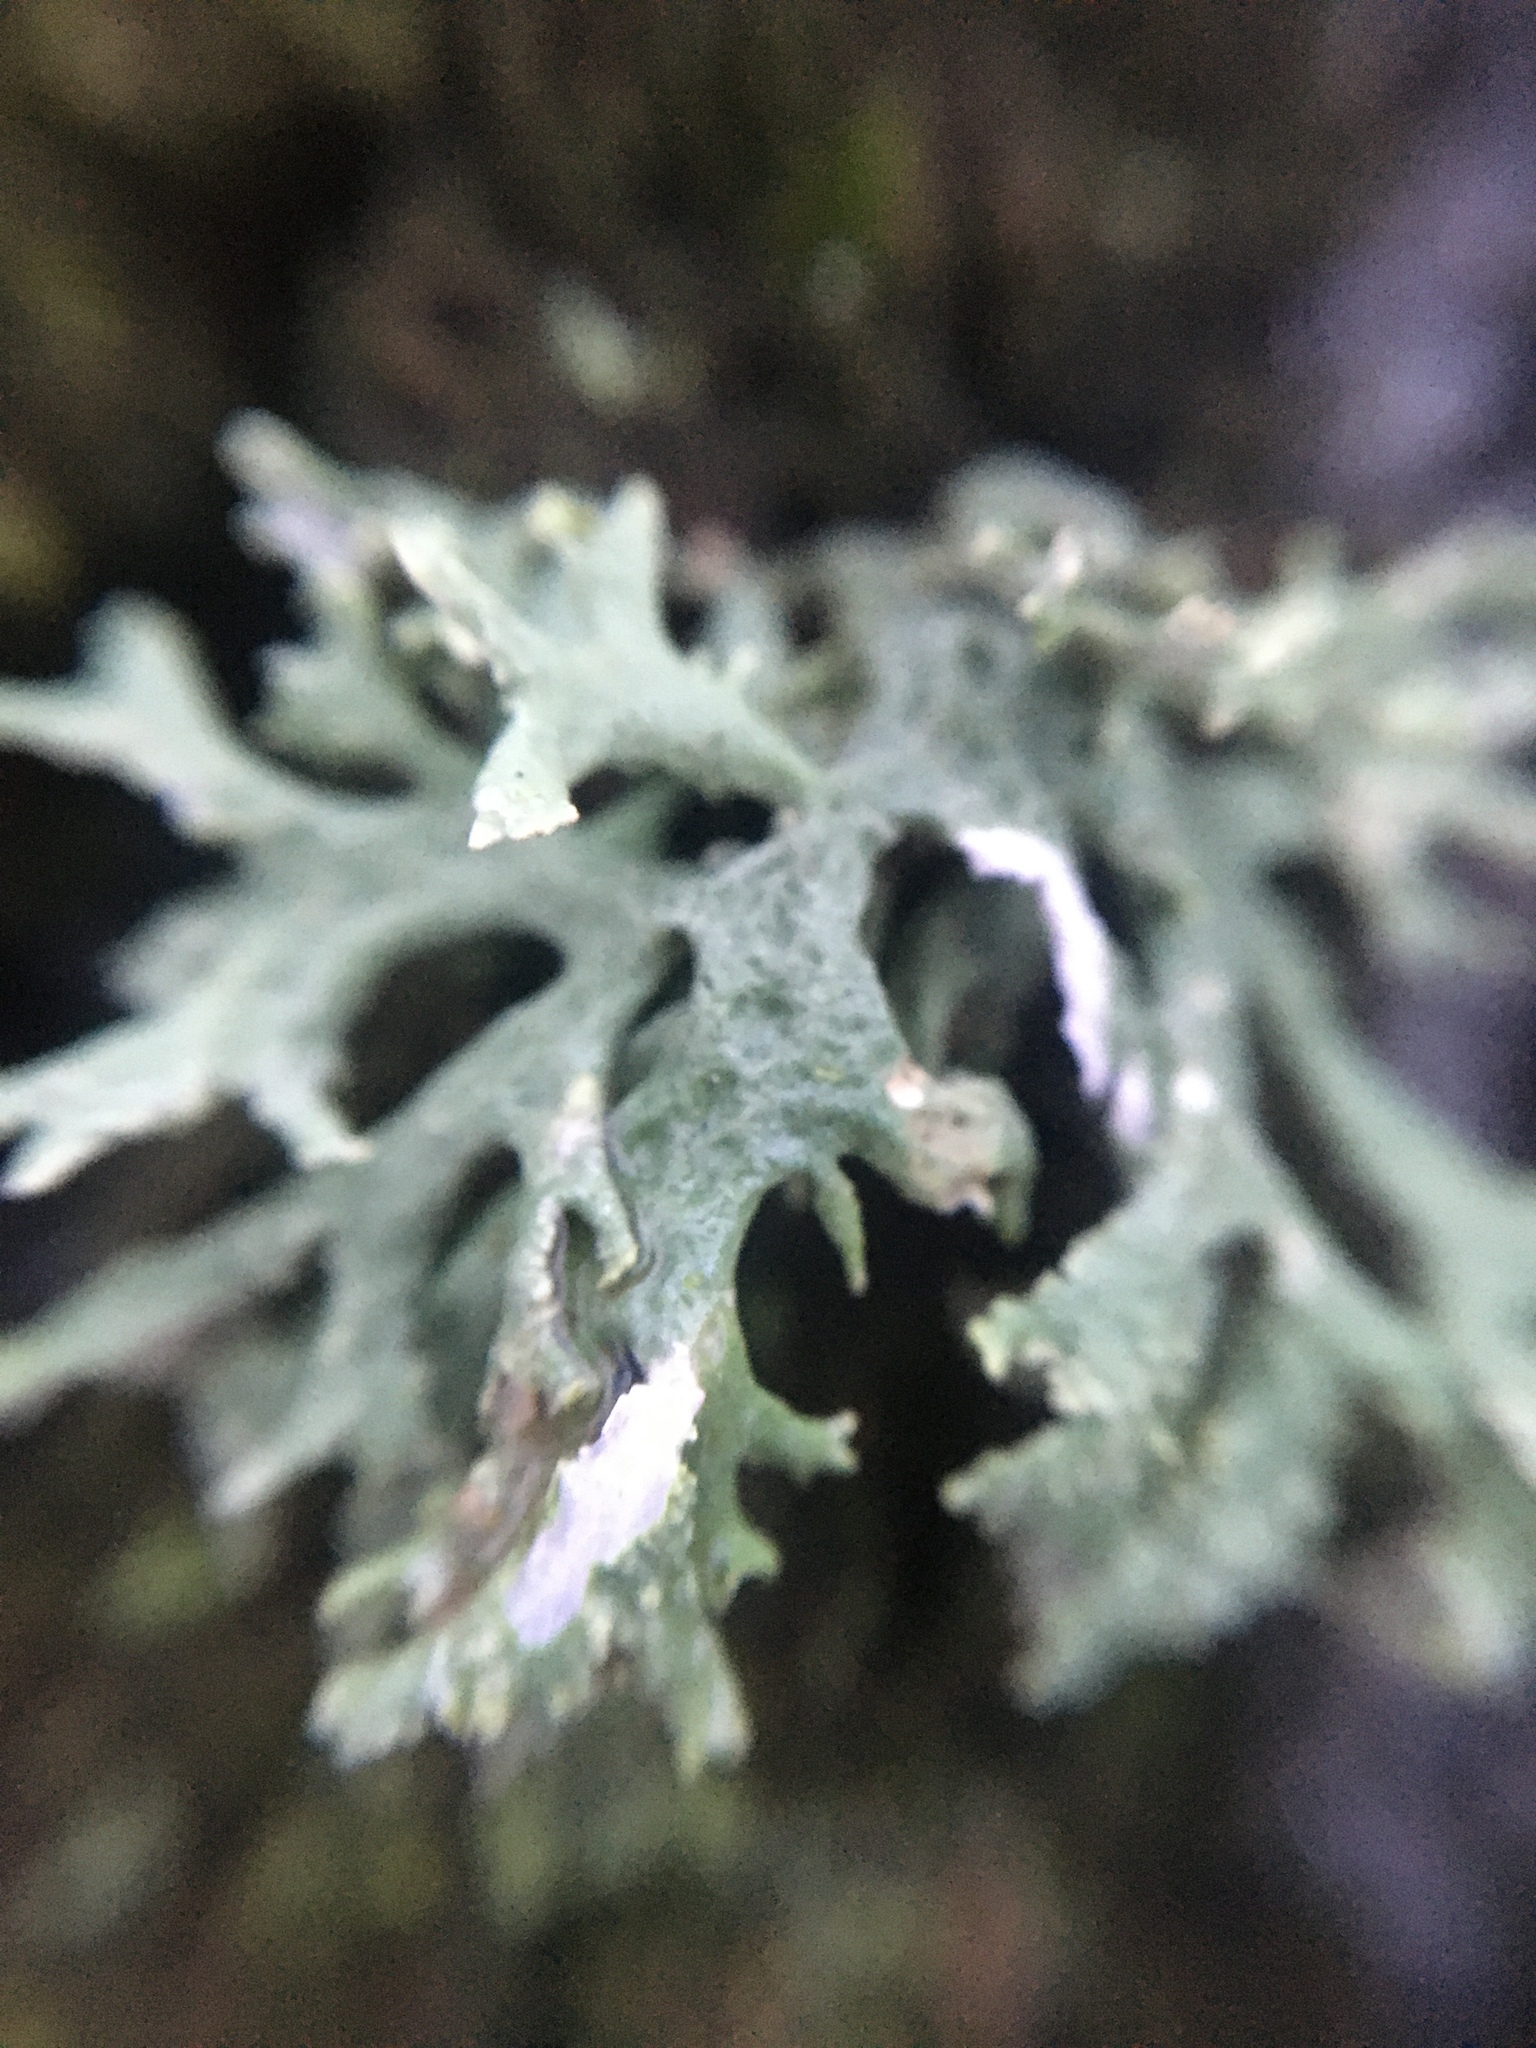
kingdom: Fungi
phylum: Ascomycota
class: Lecanoromycetes
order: Lecanorales
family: Parmeliaceae
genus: Evernia
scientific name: Evernia prunastri
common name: Oak moss
